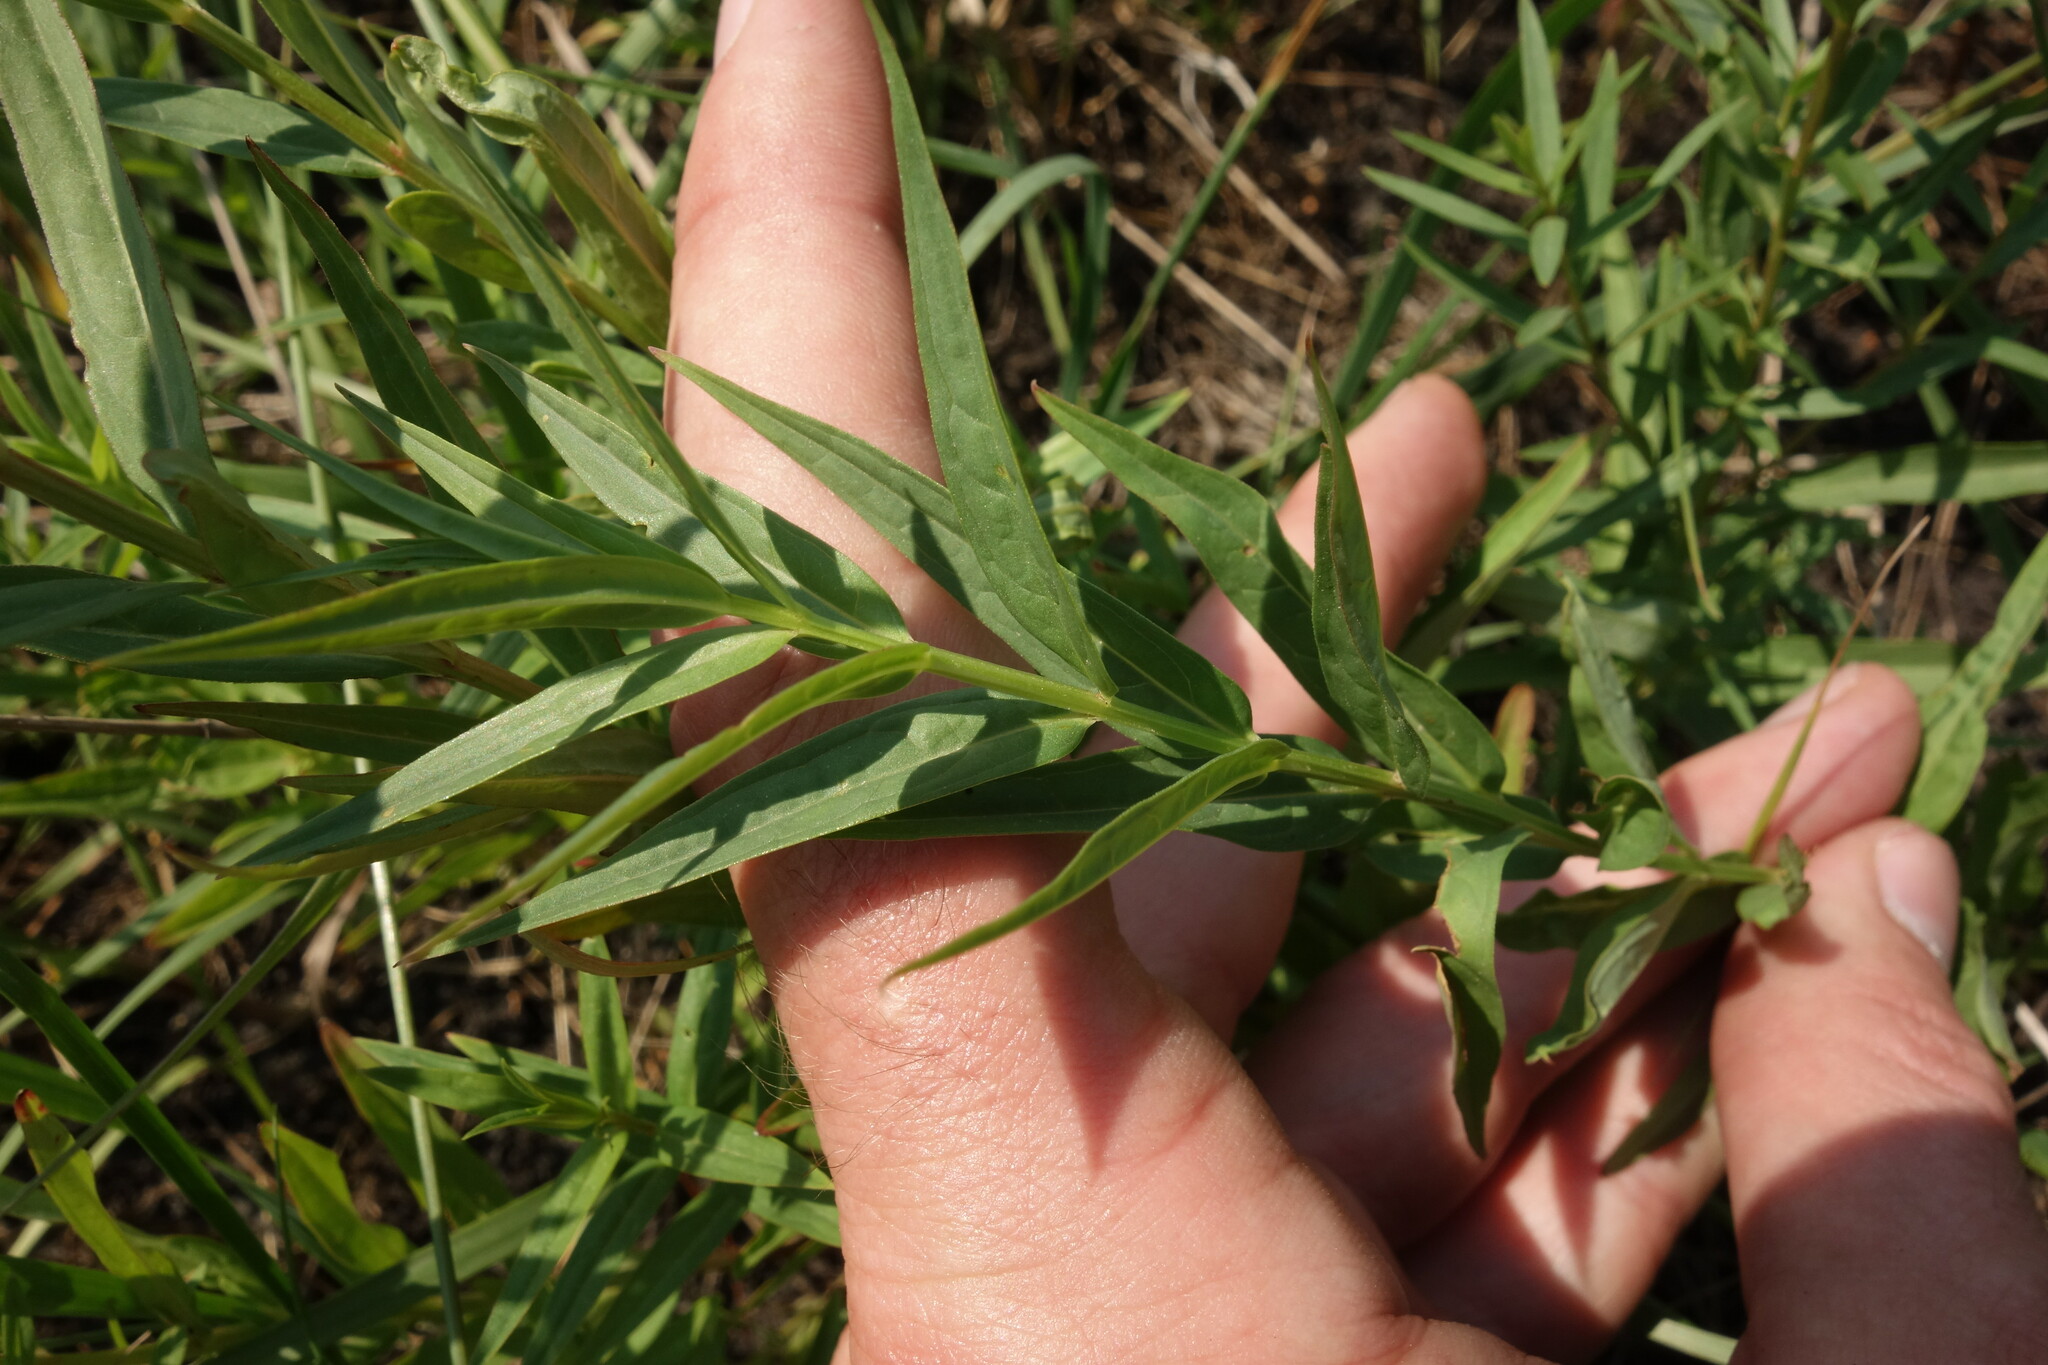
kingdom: Plantae
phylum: Tracheophyta
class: Magnoliopsida
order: Myrtales
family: Lythraceae
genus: Lythrum
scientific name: Lythrum virgatum
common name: European wand loosestrife
